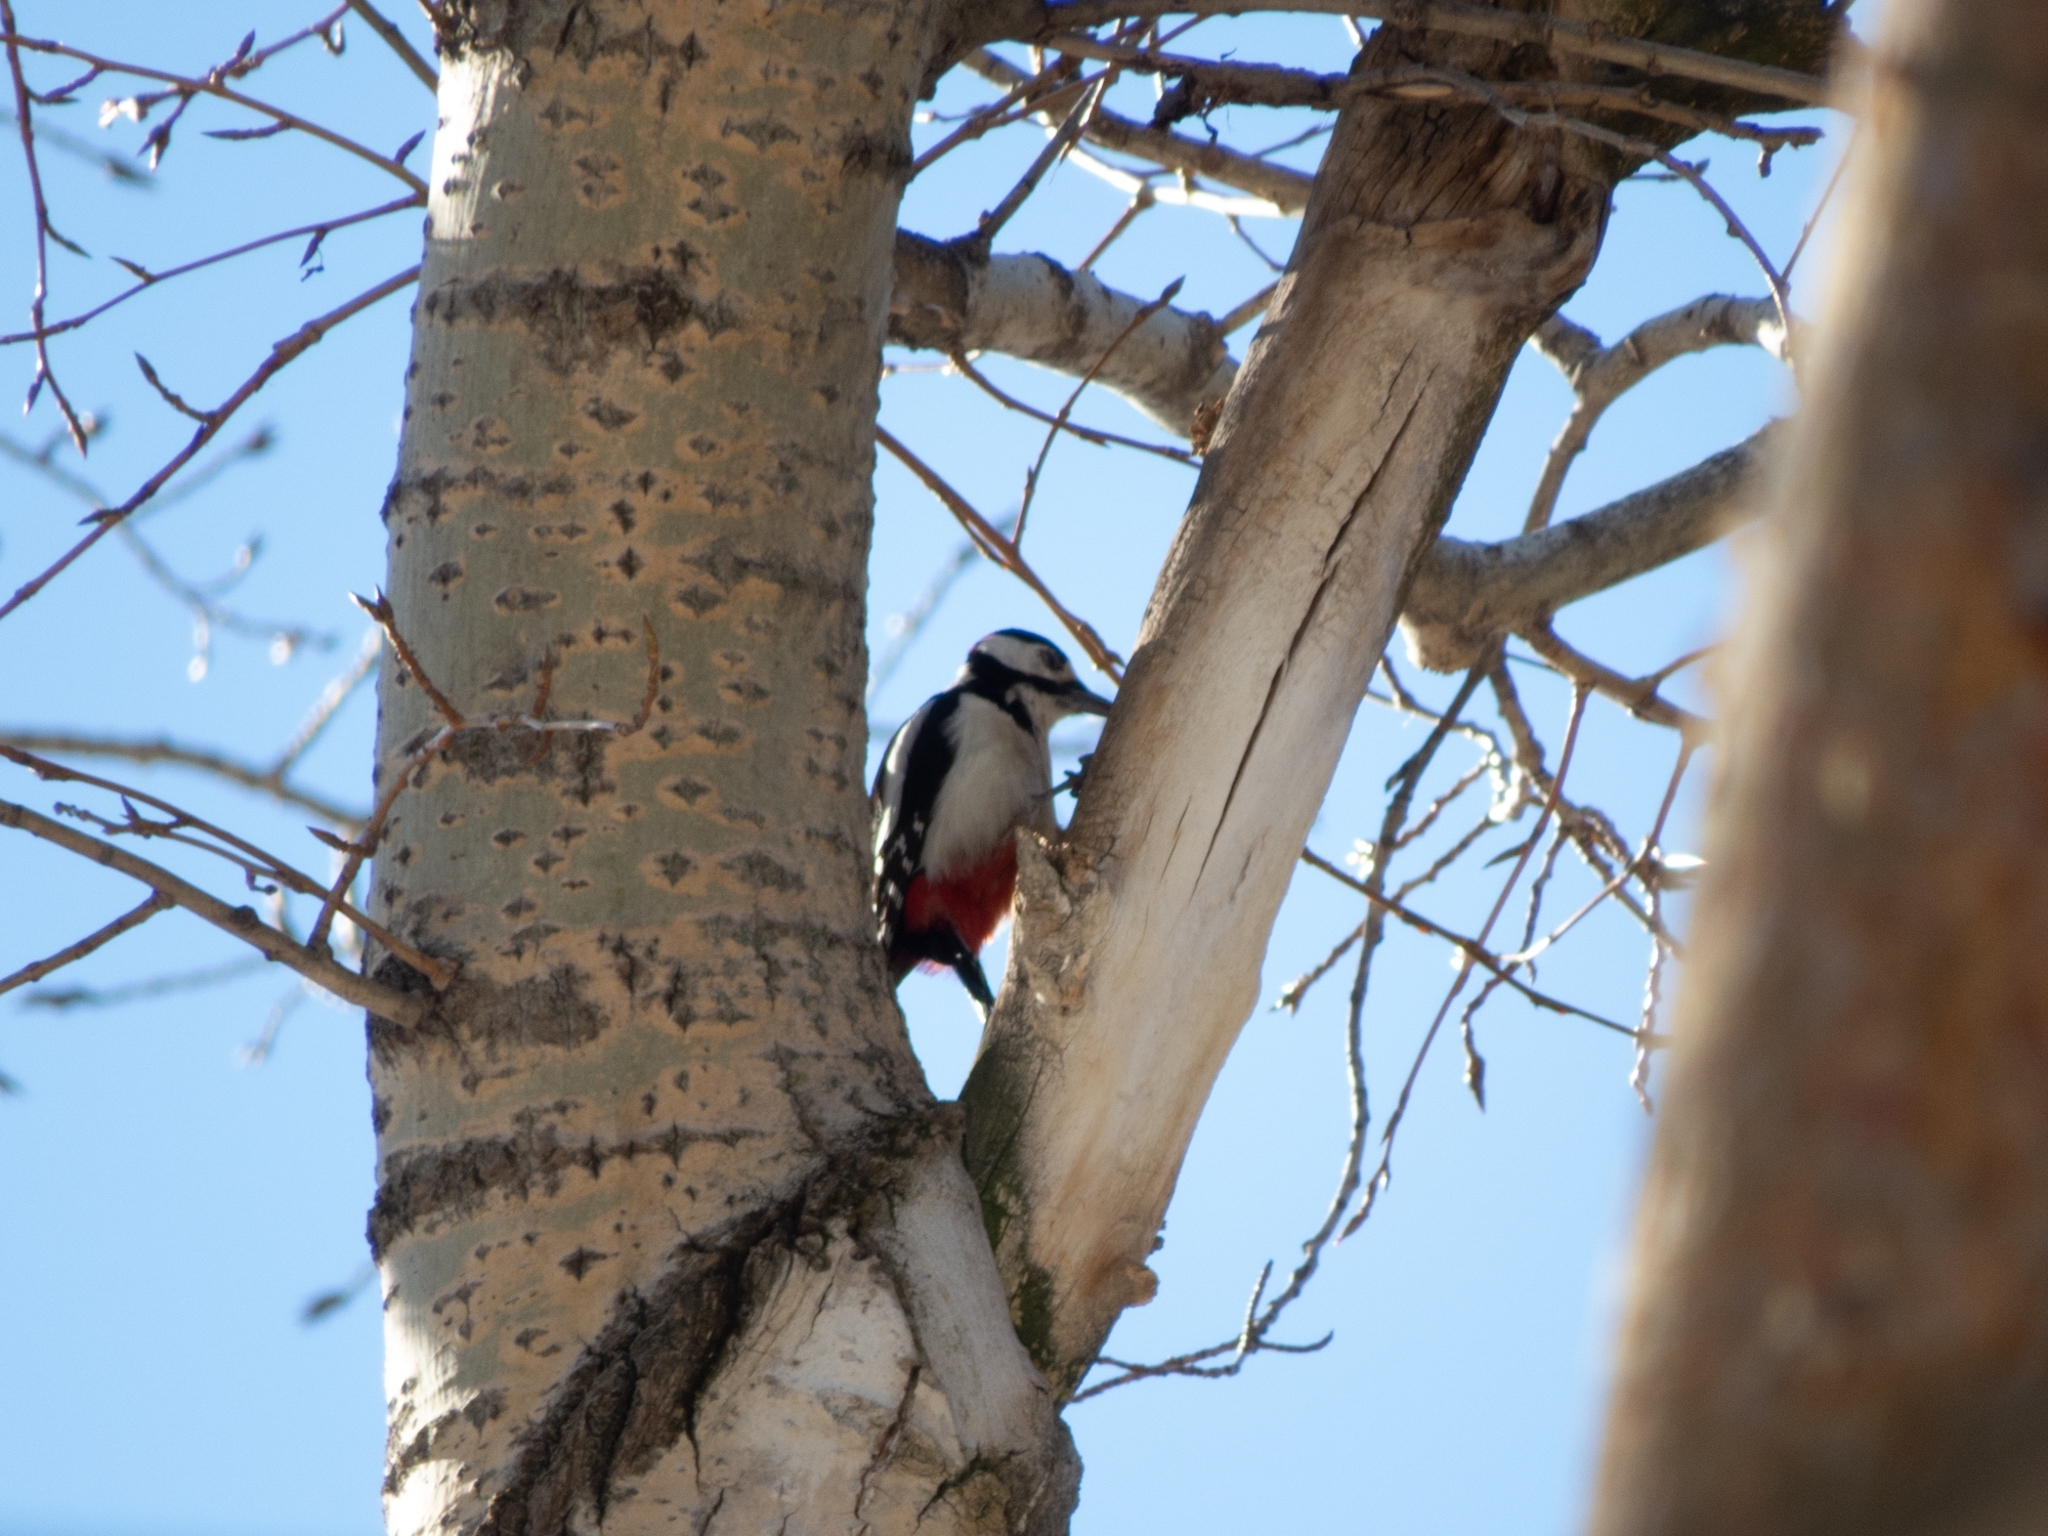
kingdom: Animalia
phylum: Chordata
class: Aves
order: Piciformes
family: Picidae
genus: Dendrocopos
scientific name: Dendrocopos major
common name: Great spotted woodpecker
